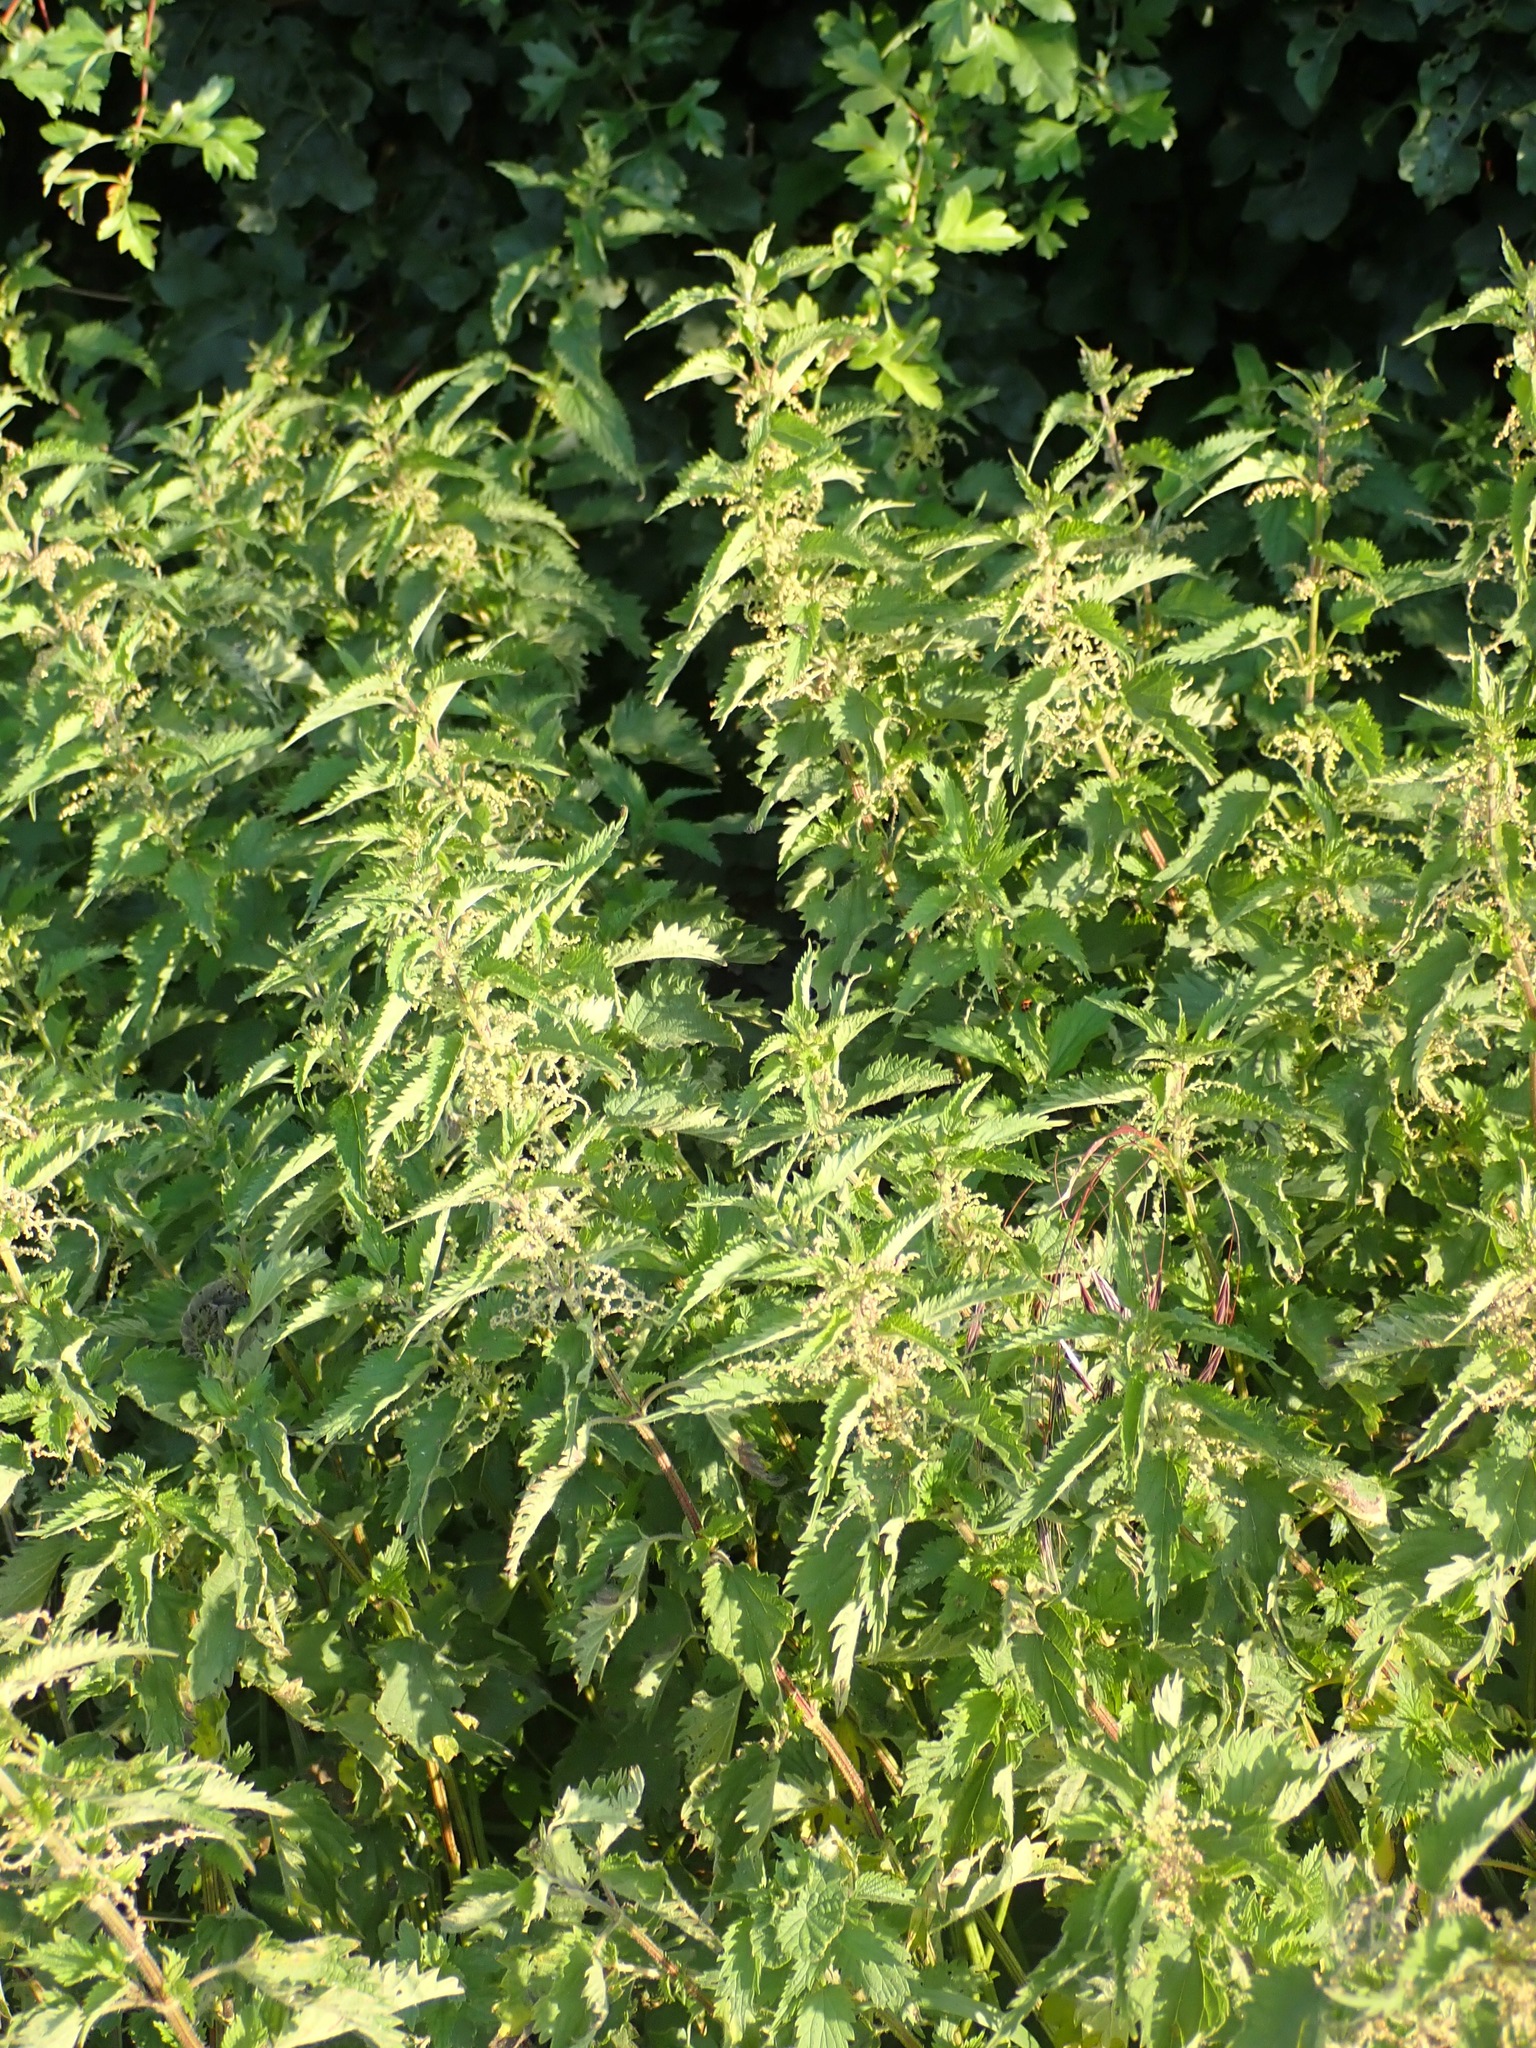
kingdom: Plantae
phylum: Tracheophyta
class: Magnoliopsida
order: Rosales
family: Urticaceae
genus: Urtica
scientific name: Urtica dioica
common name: Common nettle
